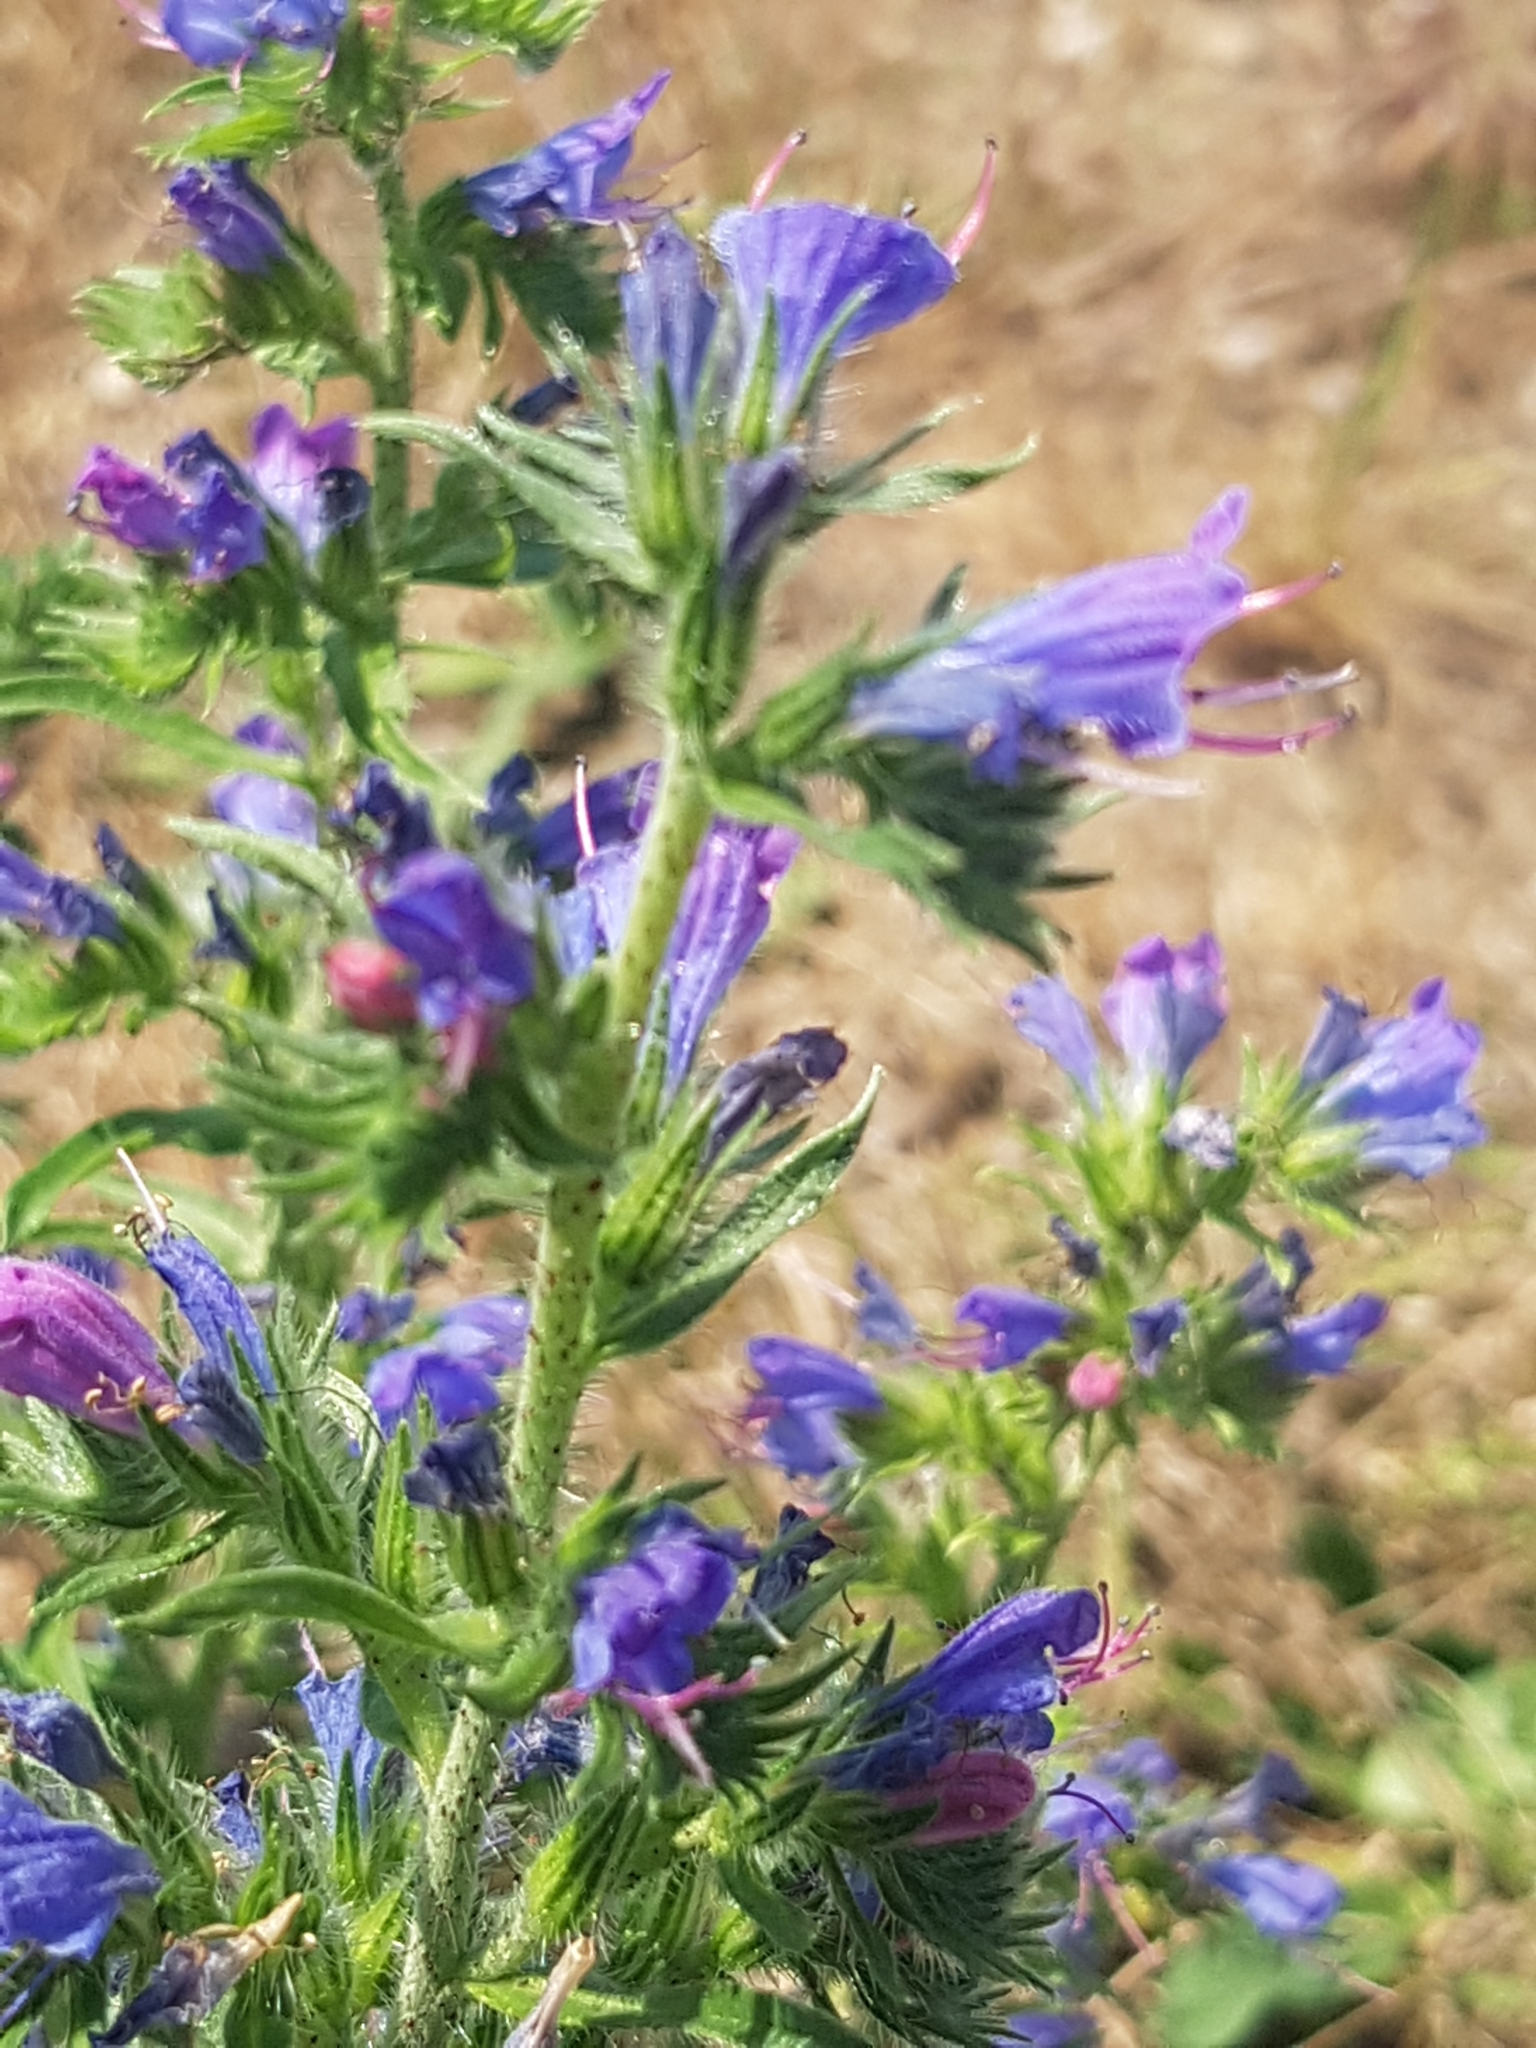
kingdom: Plantae
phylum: Tracheophyta
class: Magnoliopsida
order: Boraginales
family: Boraginaceae
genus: Echium
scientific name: Echium vulgare
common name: Common viper's bugloss
